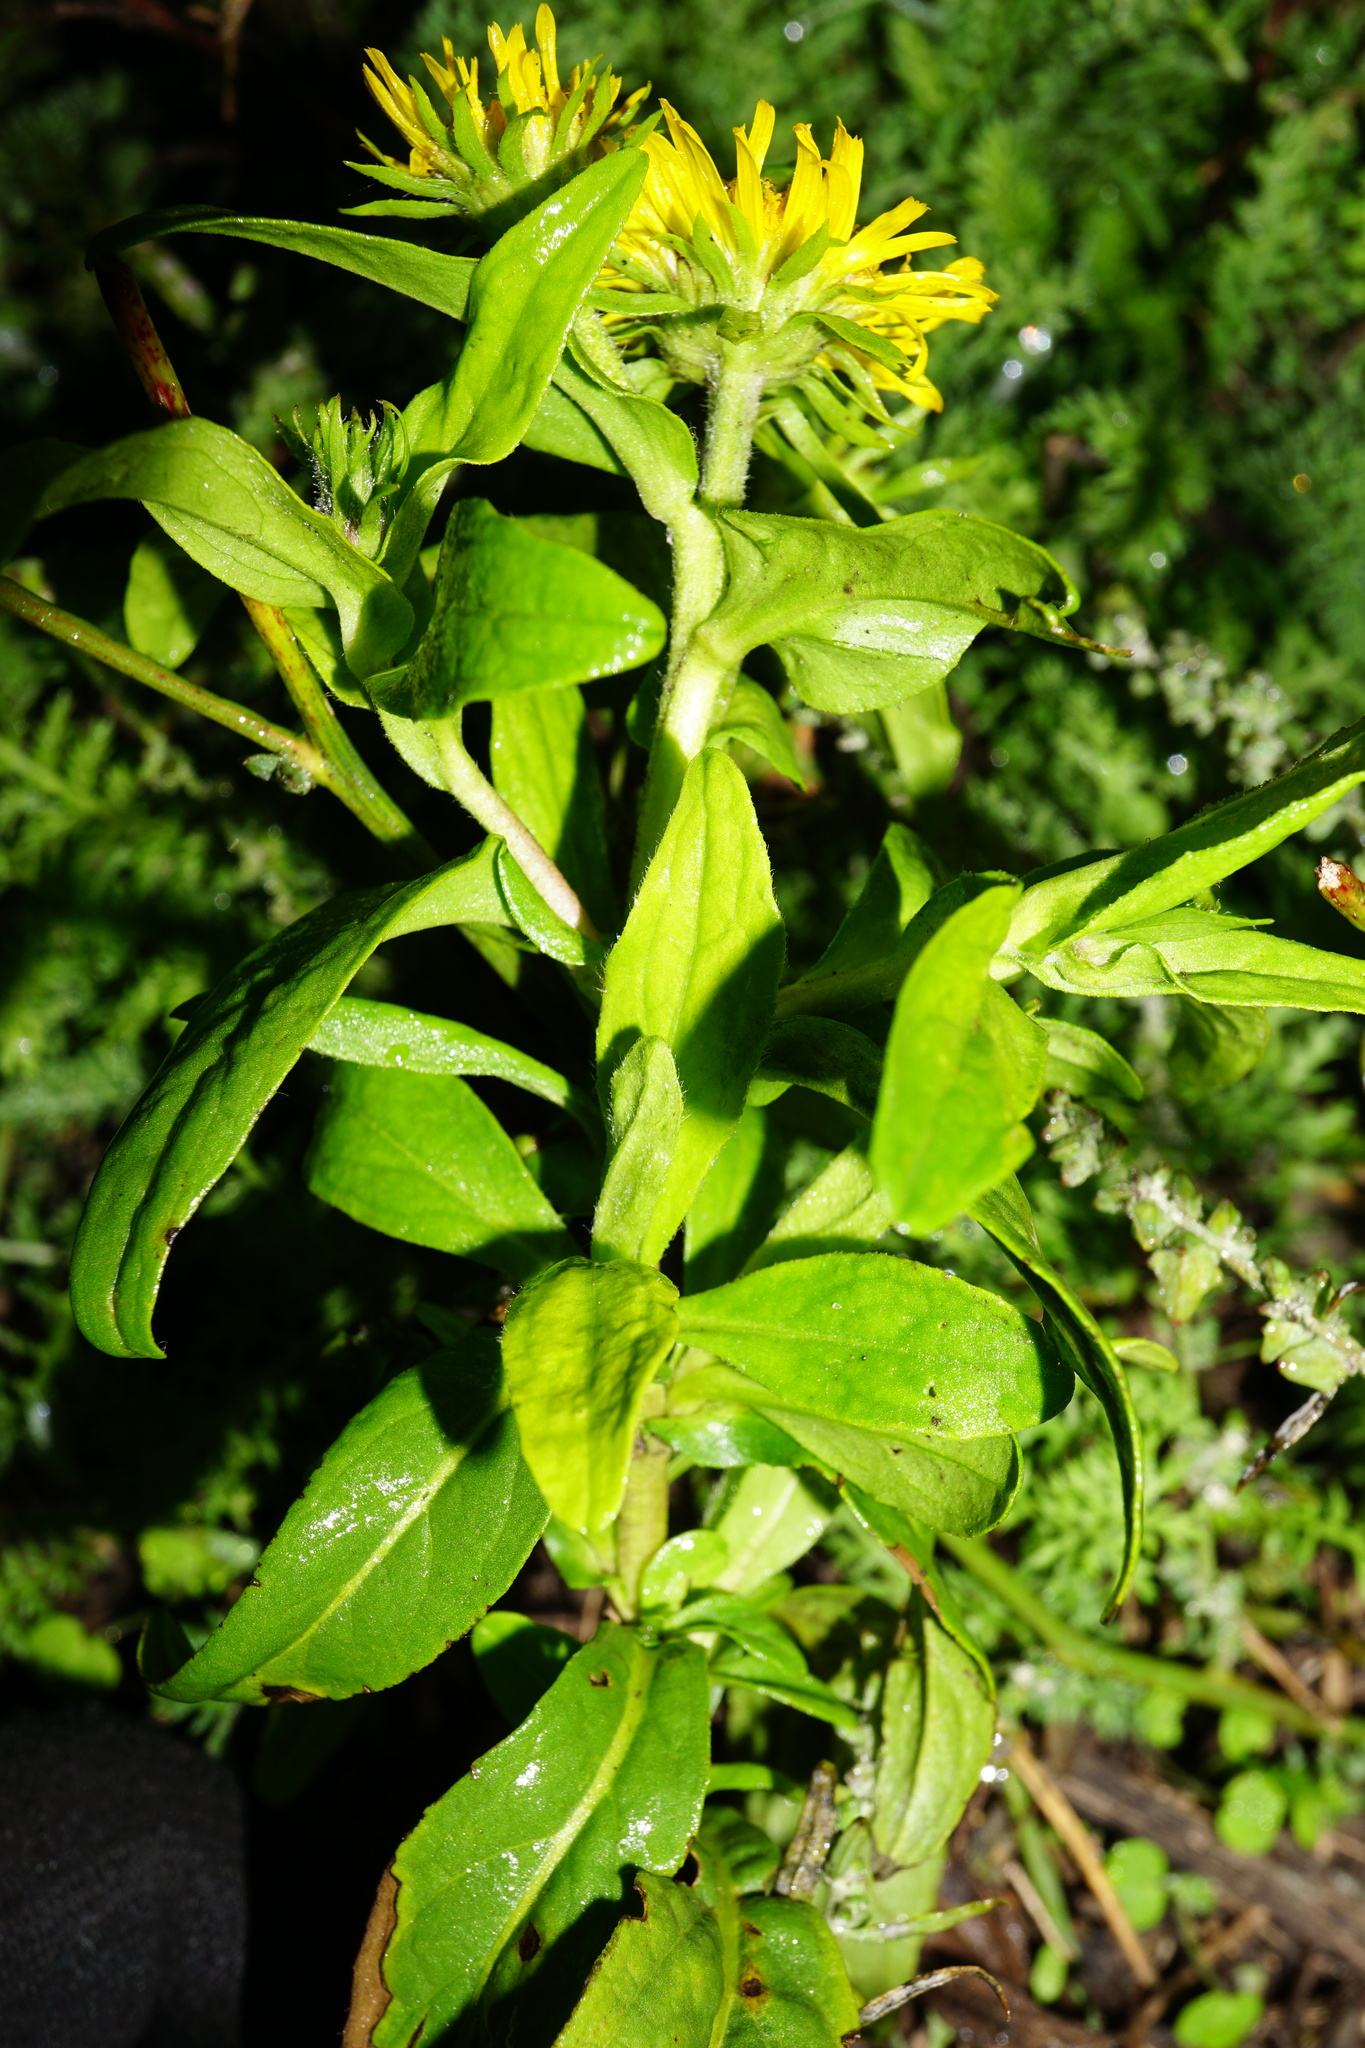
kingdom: Plantae
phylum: Tracheophyta
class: Magnoliopsida
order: Asterales
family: Asteraceae
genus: Pentanema
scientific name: Pentanema britannicum
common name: British elecampane
